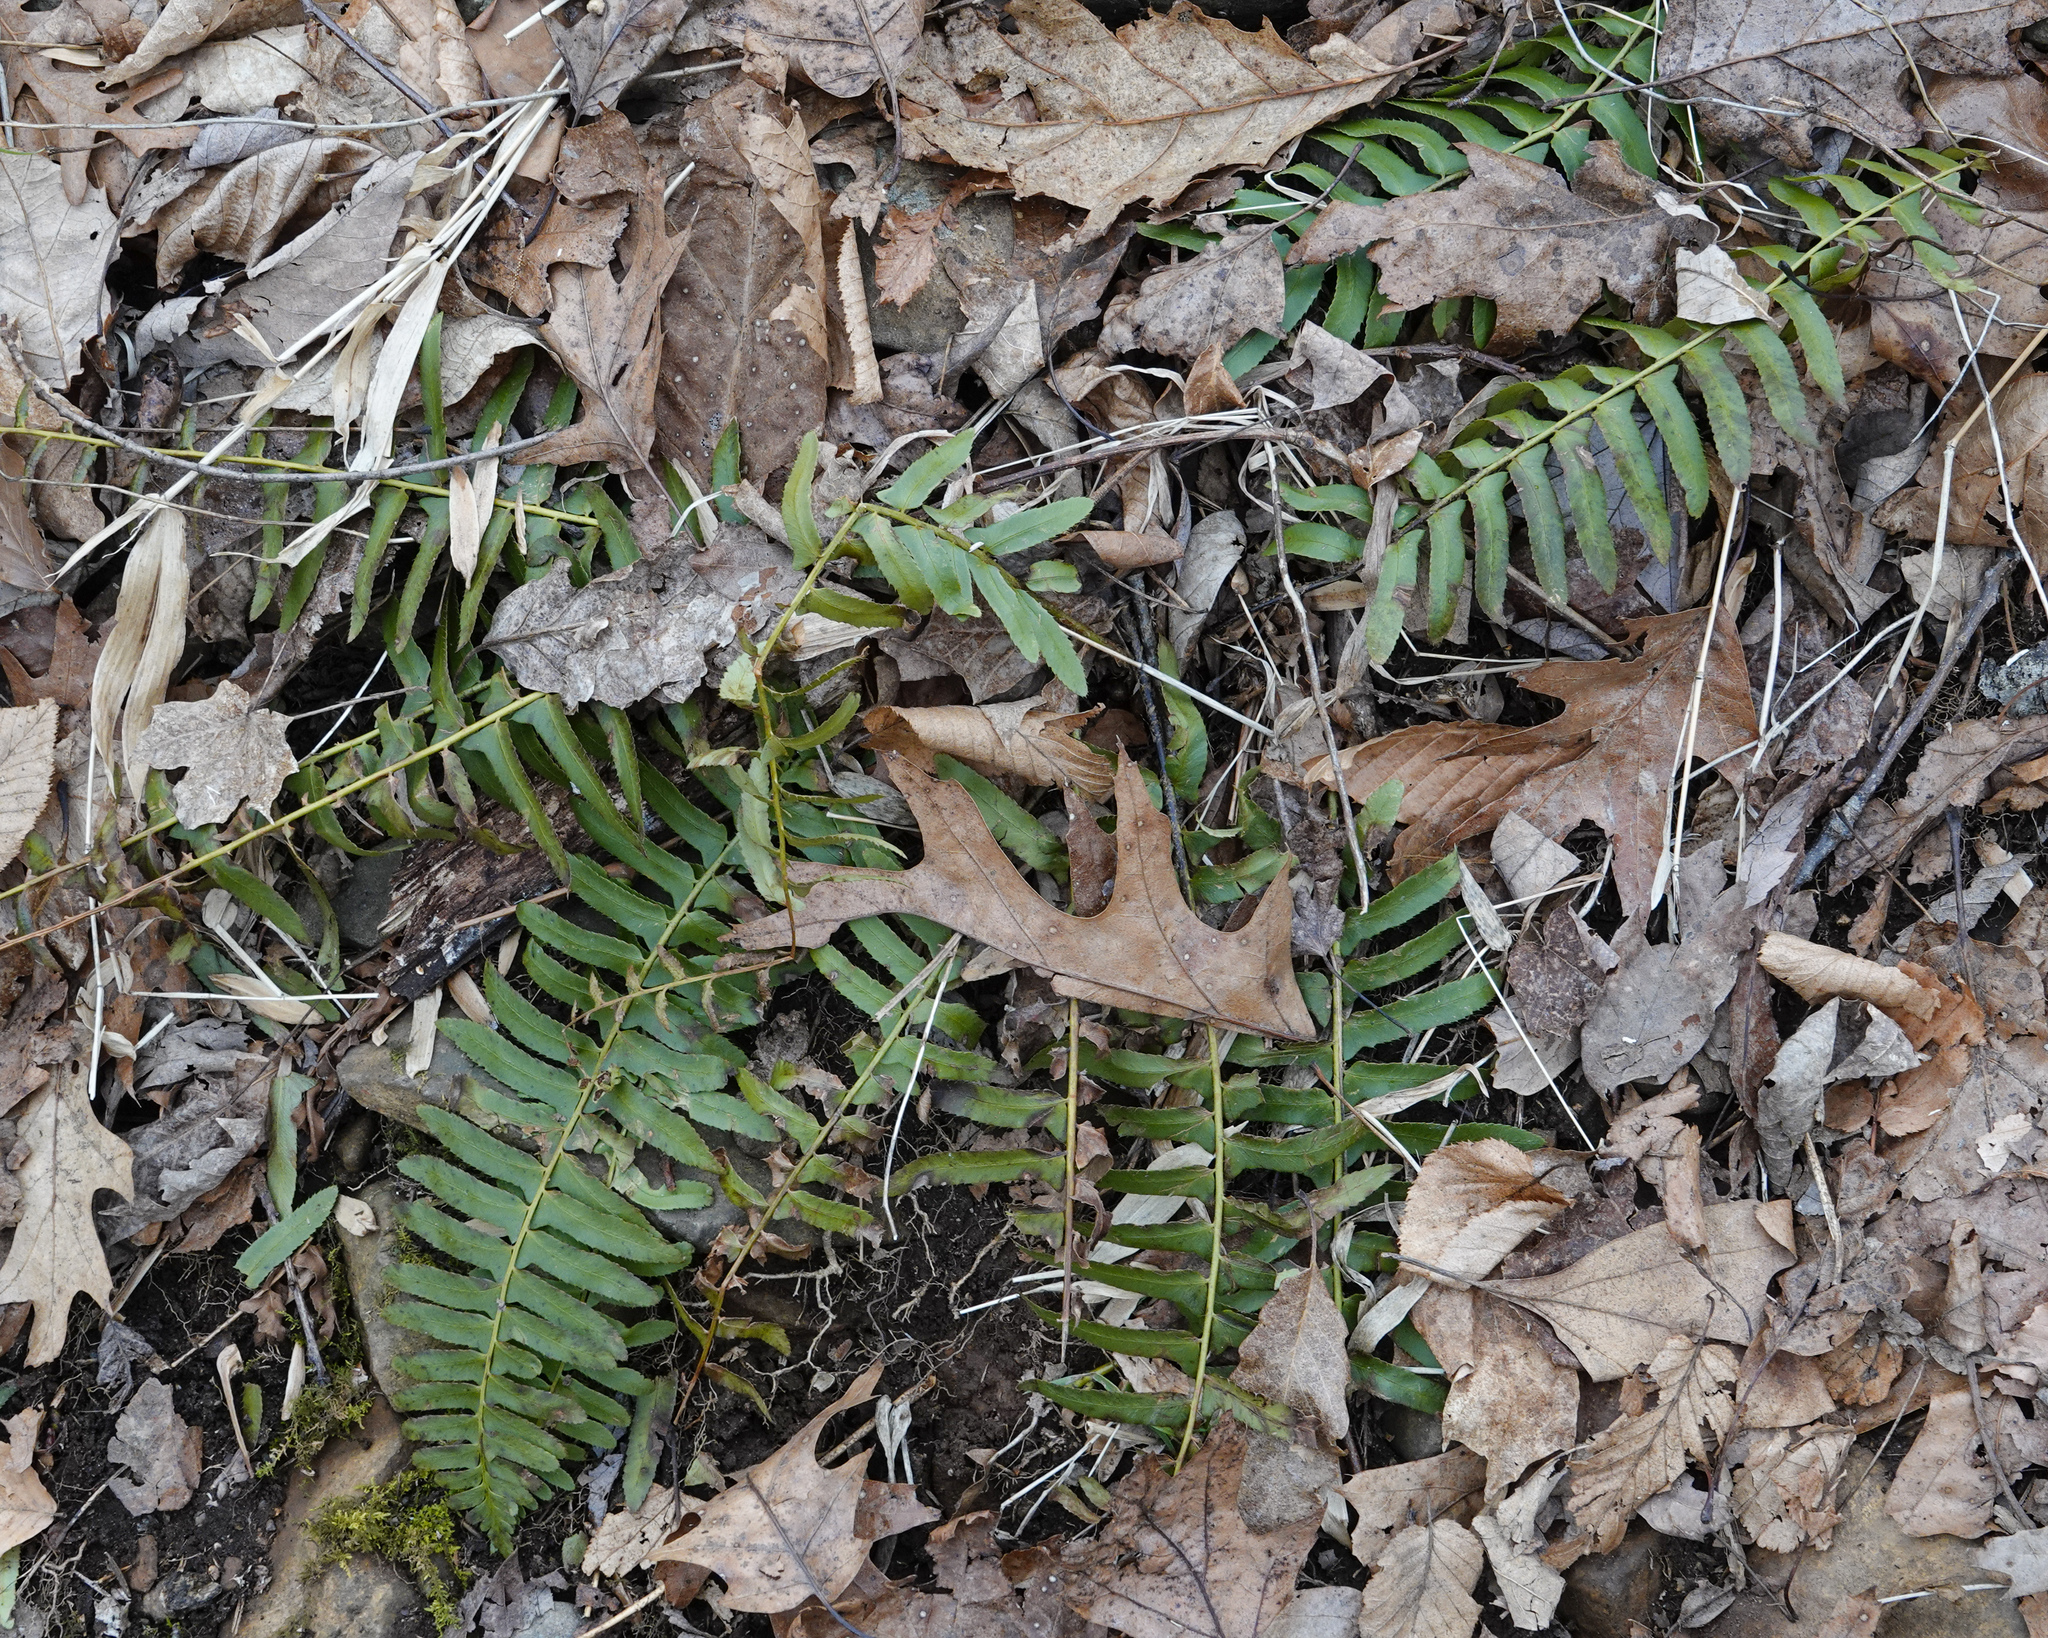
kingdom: Plantae
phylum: Tracheophyta
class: Polypodiopsida
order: Polypodiales
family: Dryopteridaceae
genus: Polystichum
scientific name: Polystichum acrostichoides
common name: Christmas fern
